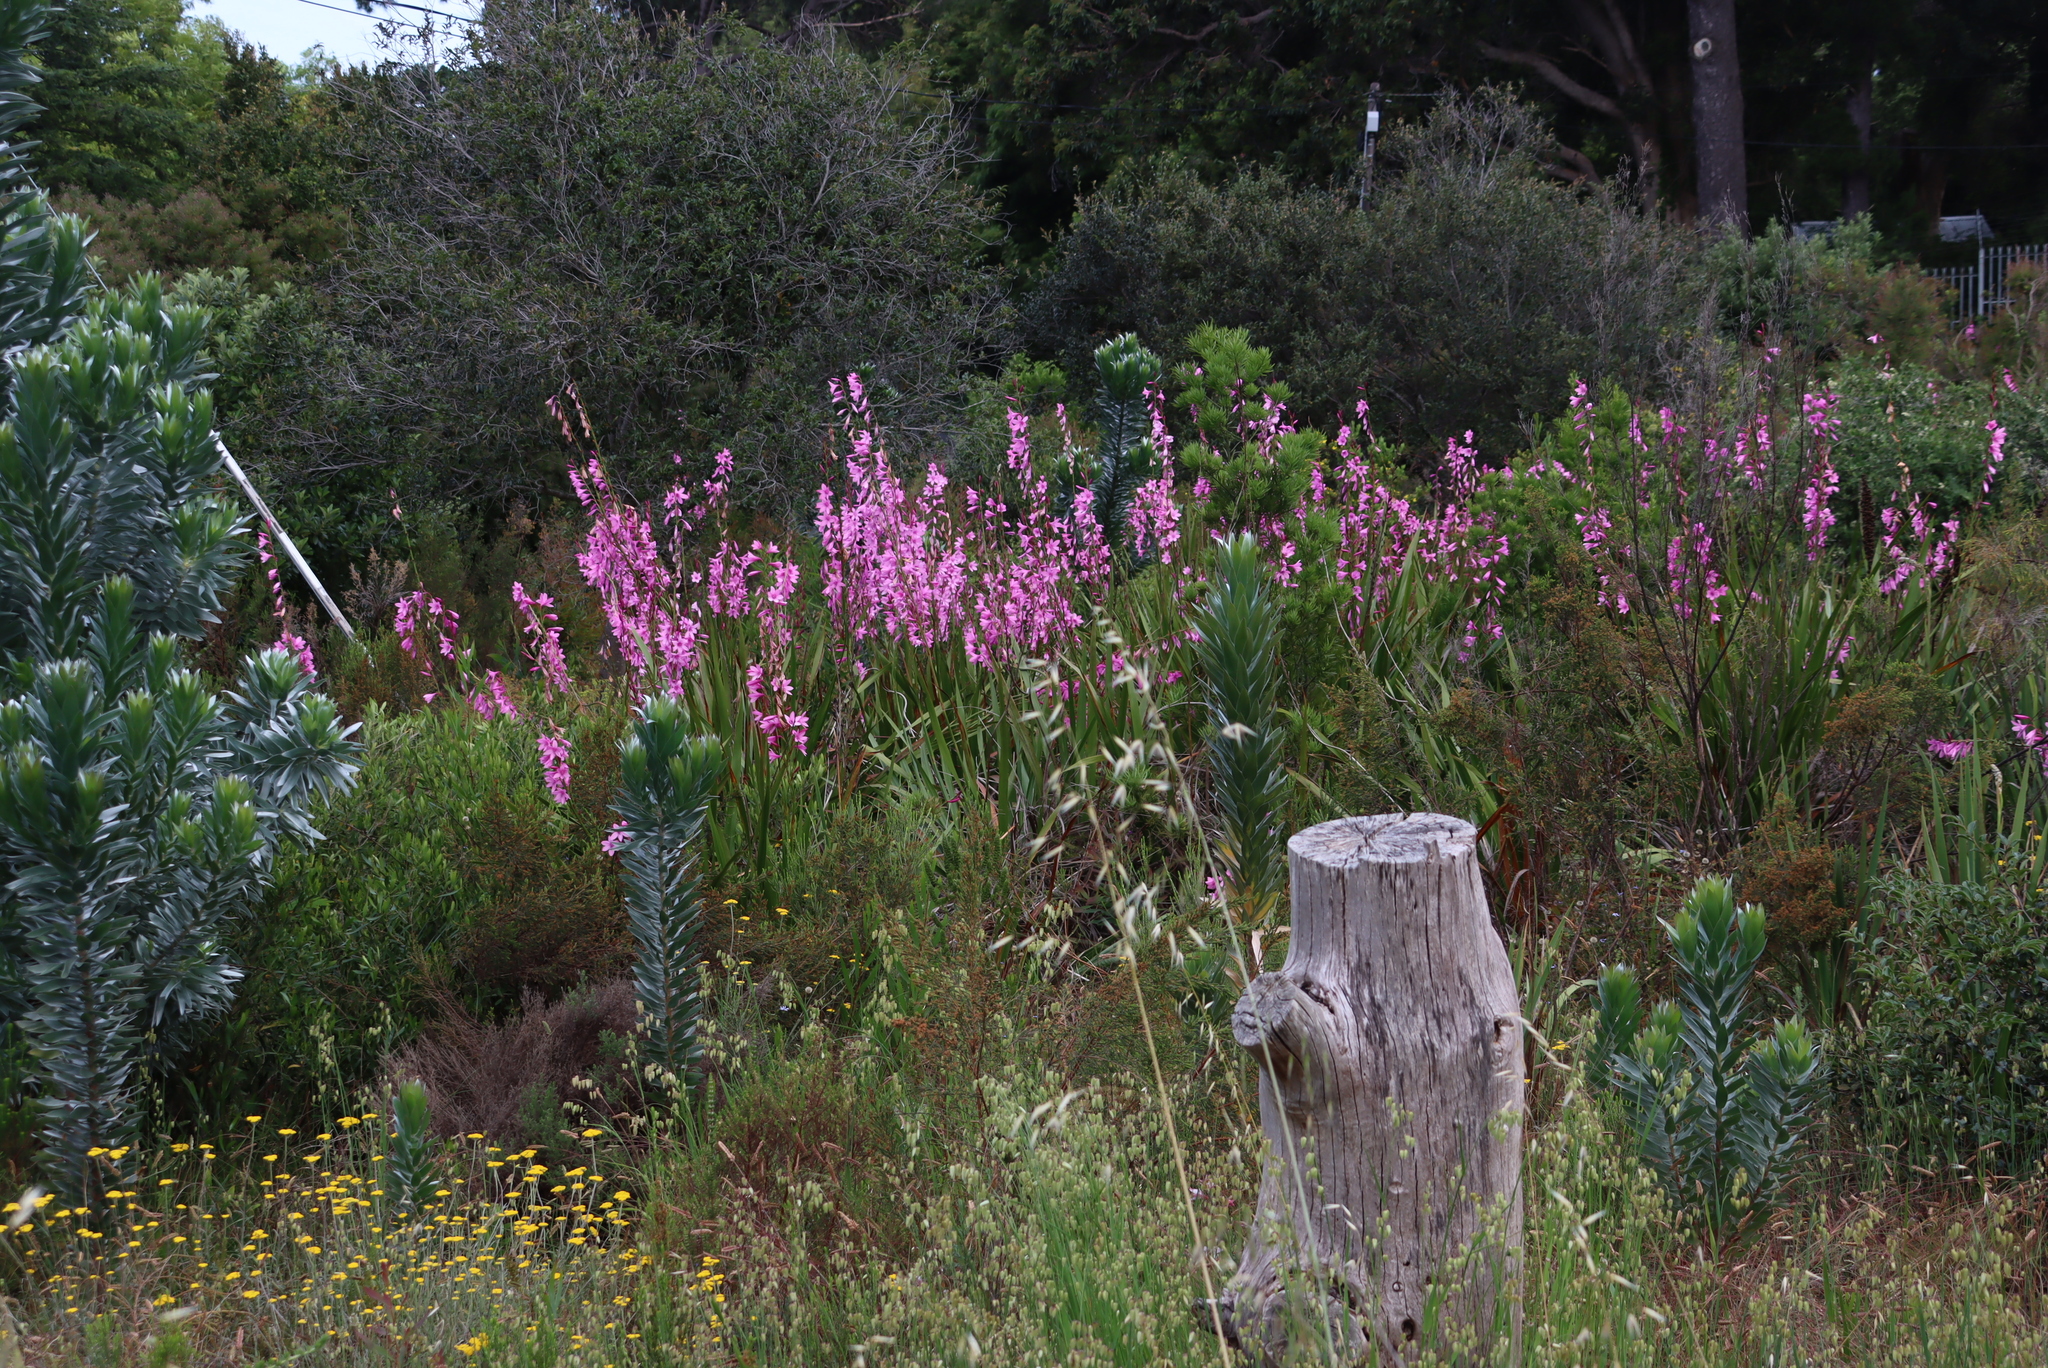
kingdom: Plantae
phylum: Tracheophyta
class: Liliopsida
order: Asparagales
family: Iridaceae
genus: Watsonia
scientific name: Watsonia borbonica
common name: Bugle-lily
